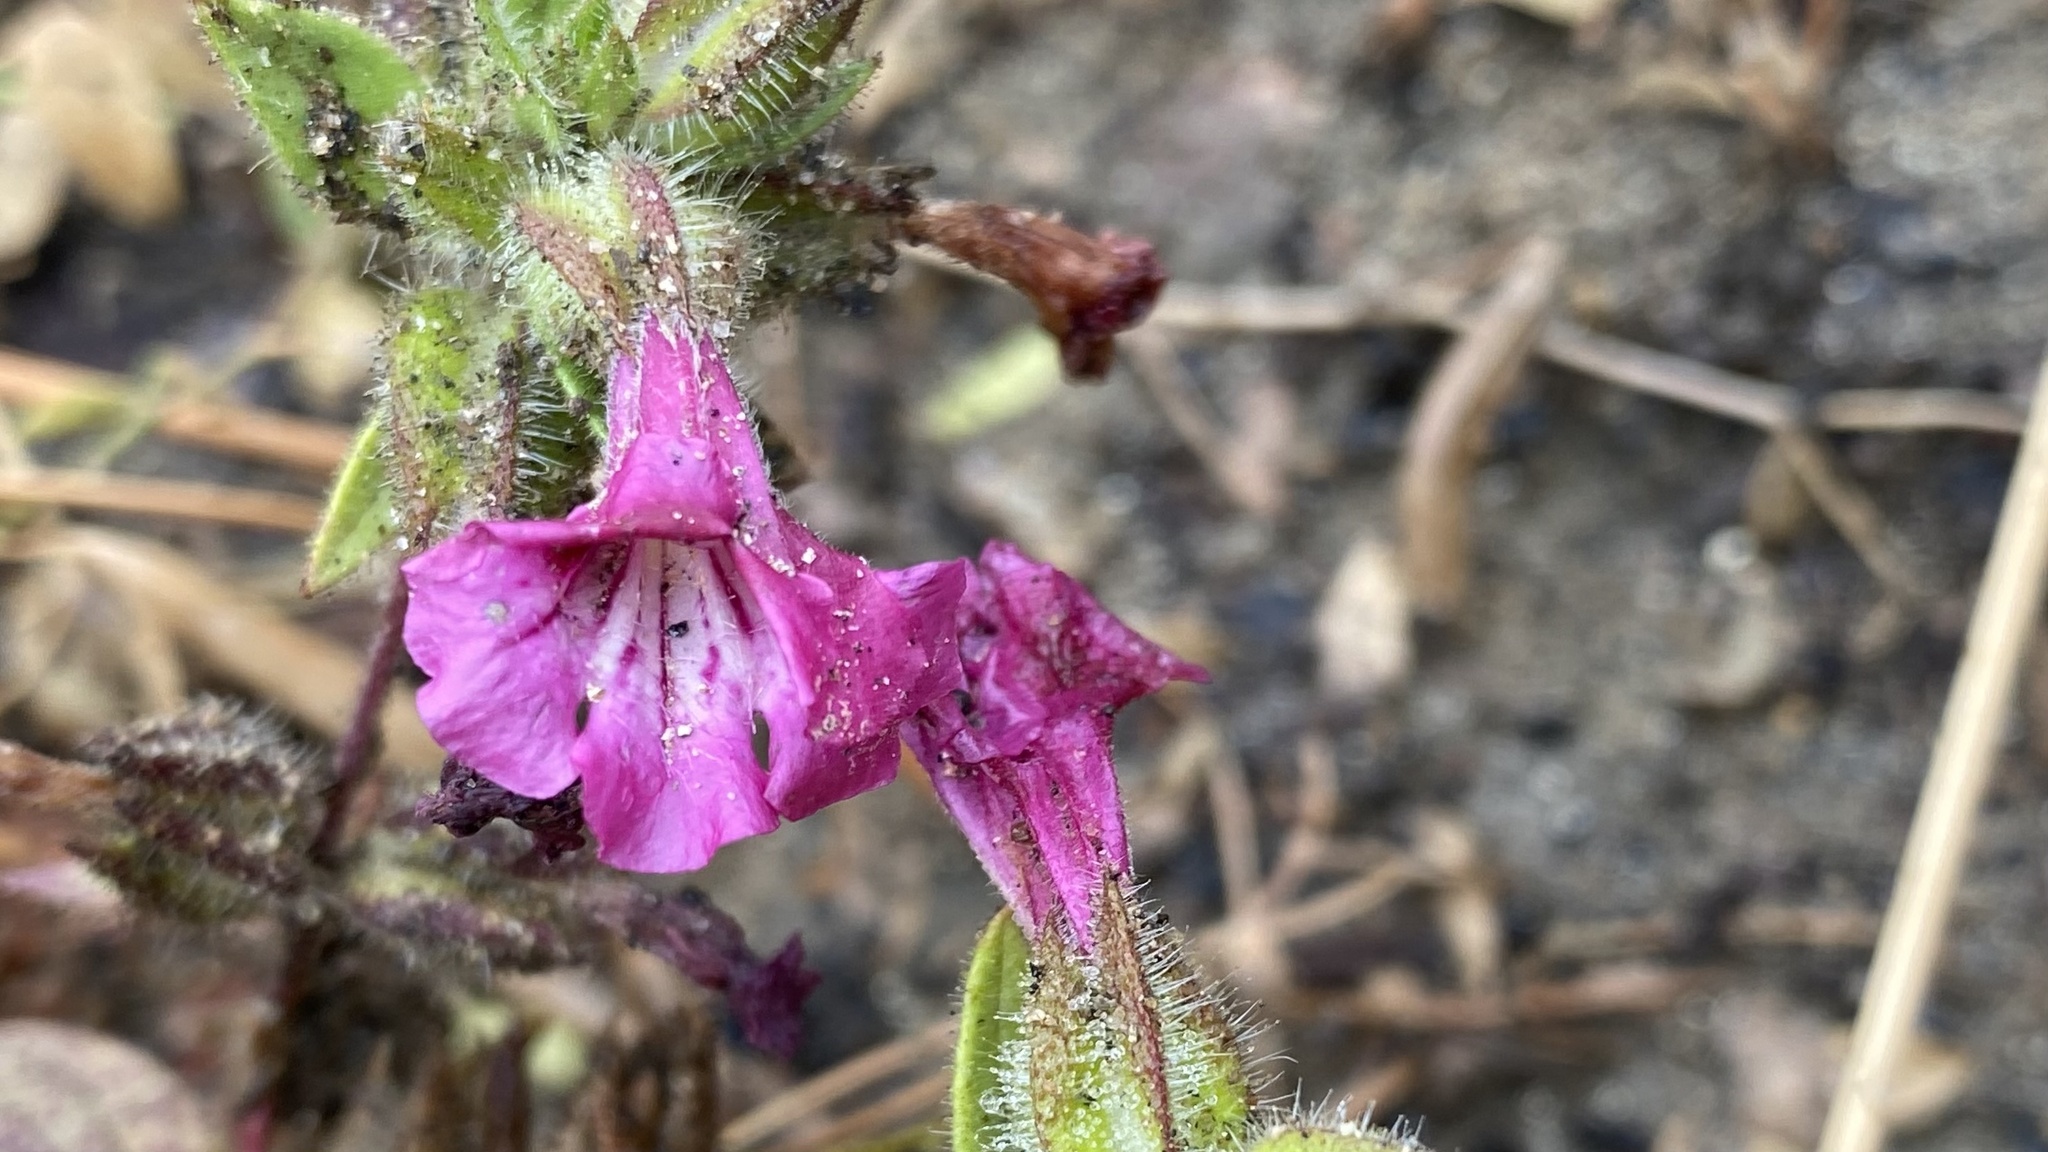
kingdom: Plantae
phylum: Tracheophyta
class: Magnoliopsida
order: Lamiales
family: Phrymaceae
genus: Diplacus
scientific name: Diplacus constrictus
